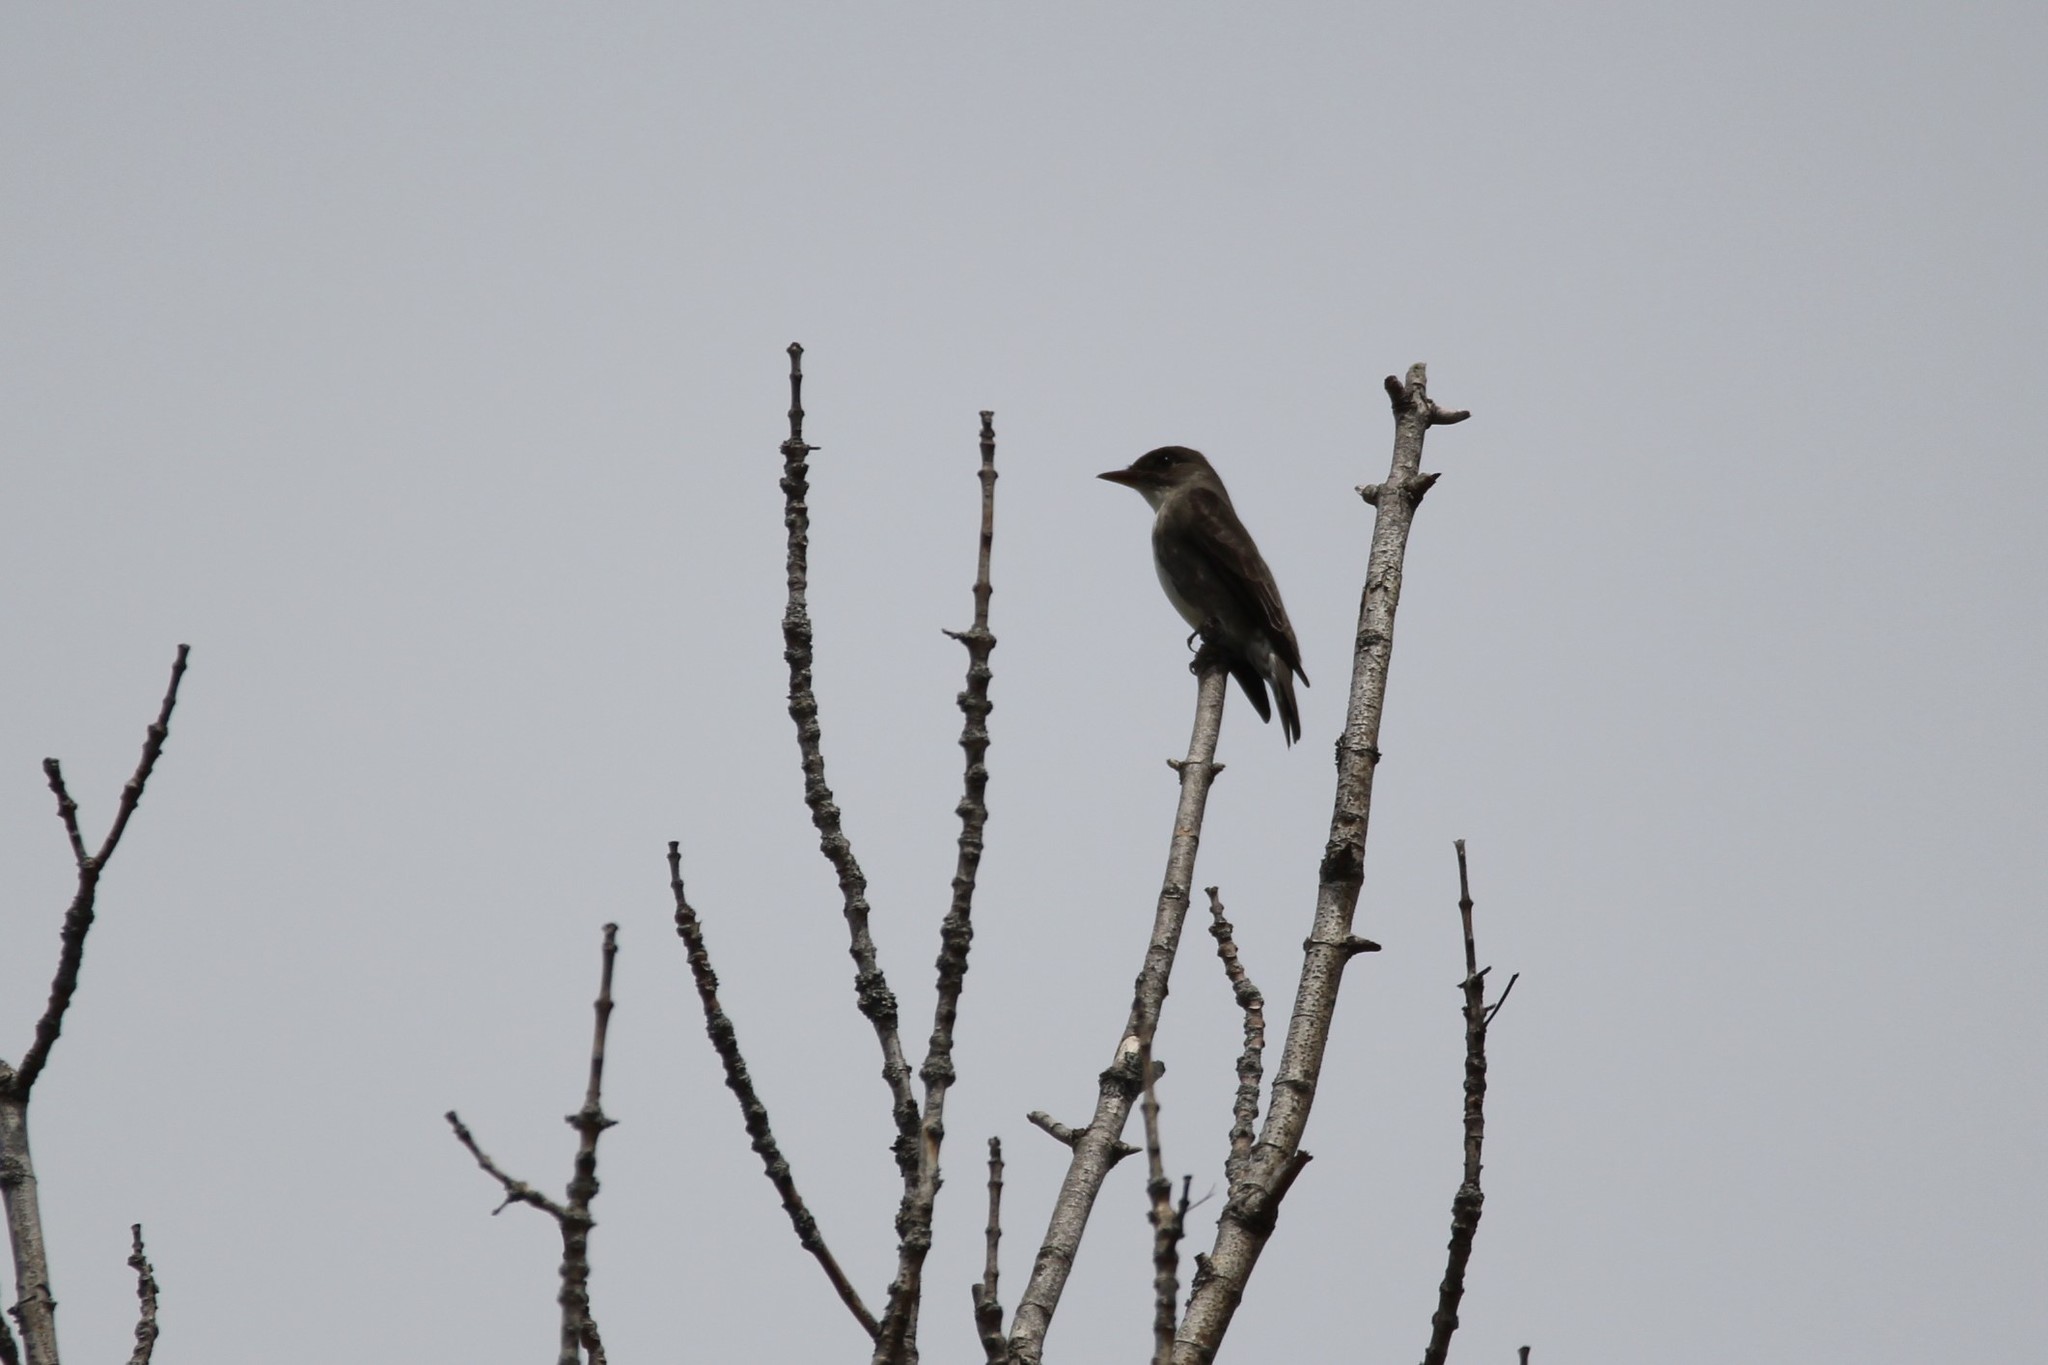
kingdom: Animalia
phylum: Chordata
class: Aves
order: Passeriformes
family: Tyrannidae
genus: Contopus
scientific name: Contopus cooperi
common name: Olive-sided flycatcher
